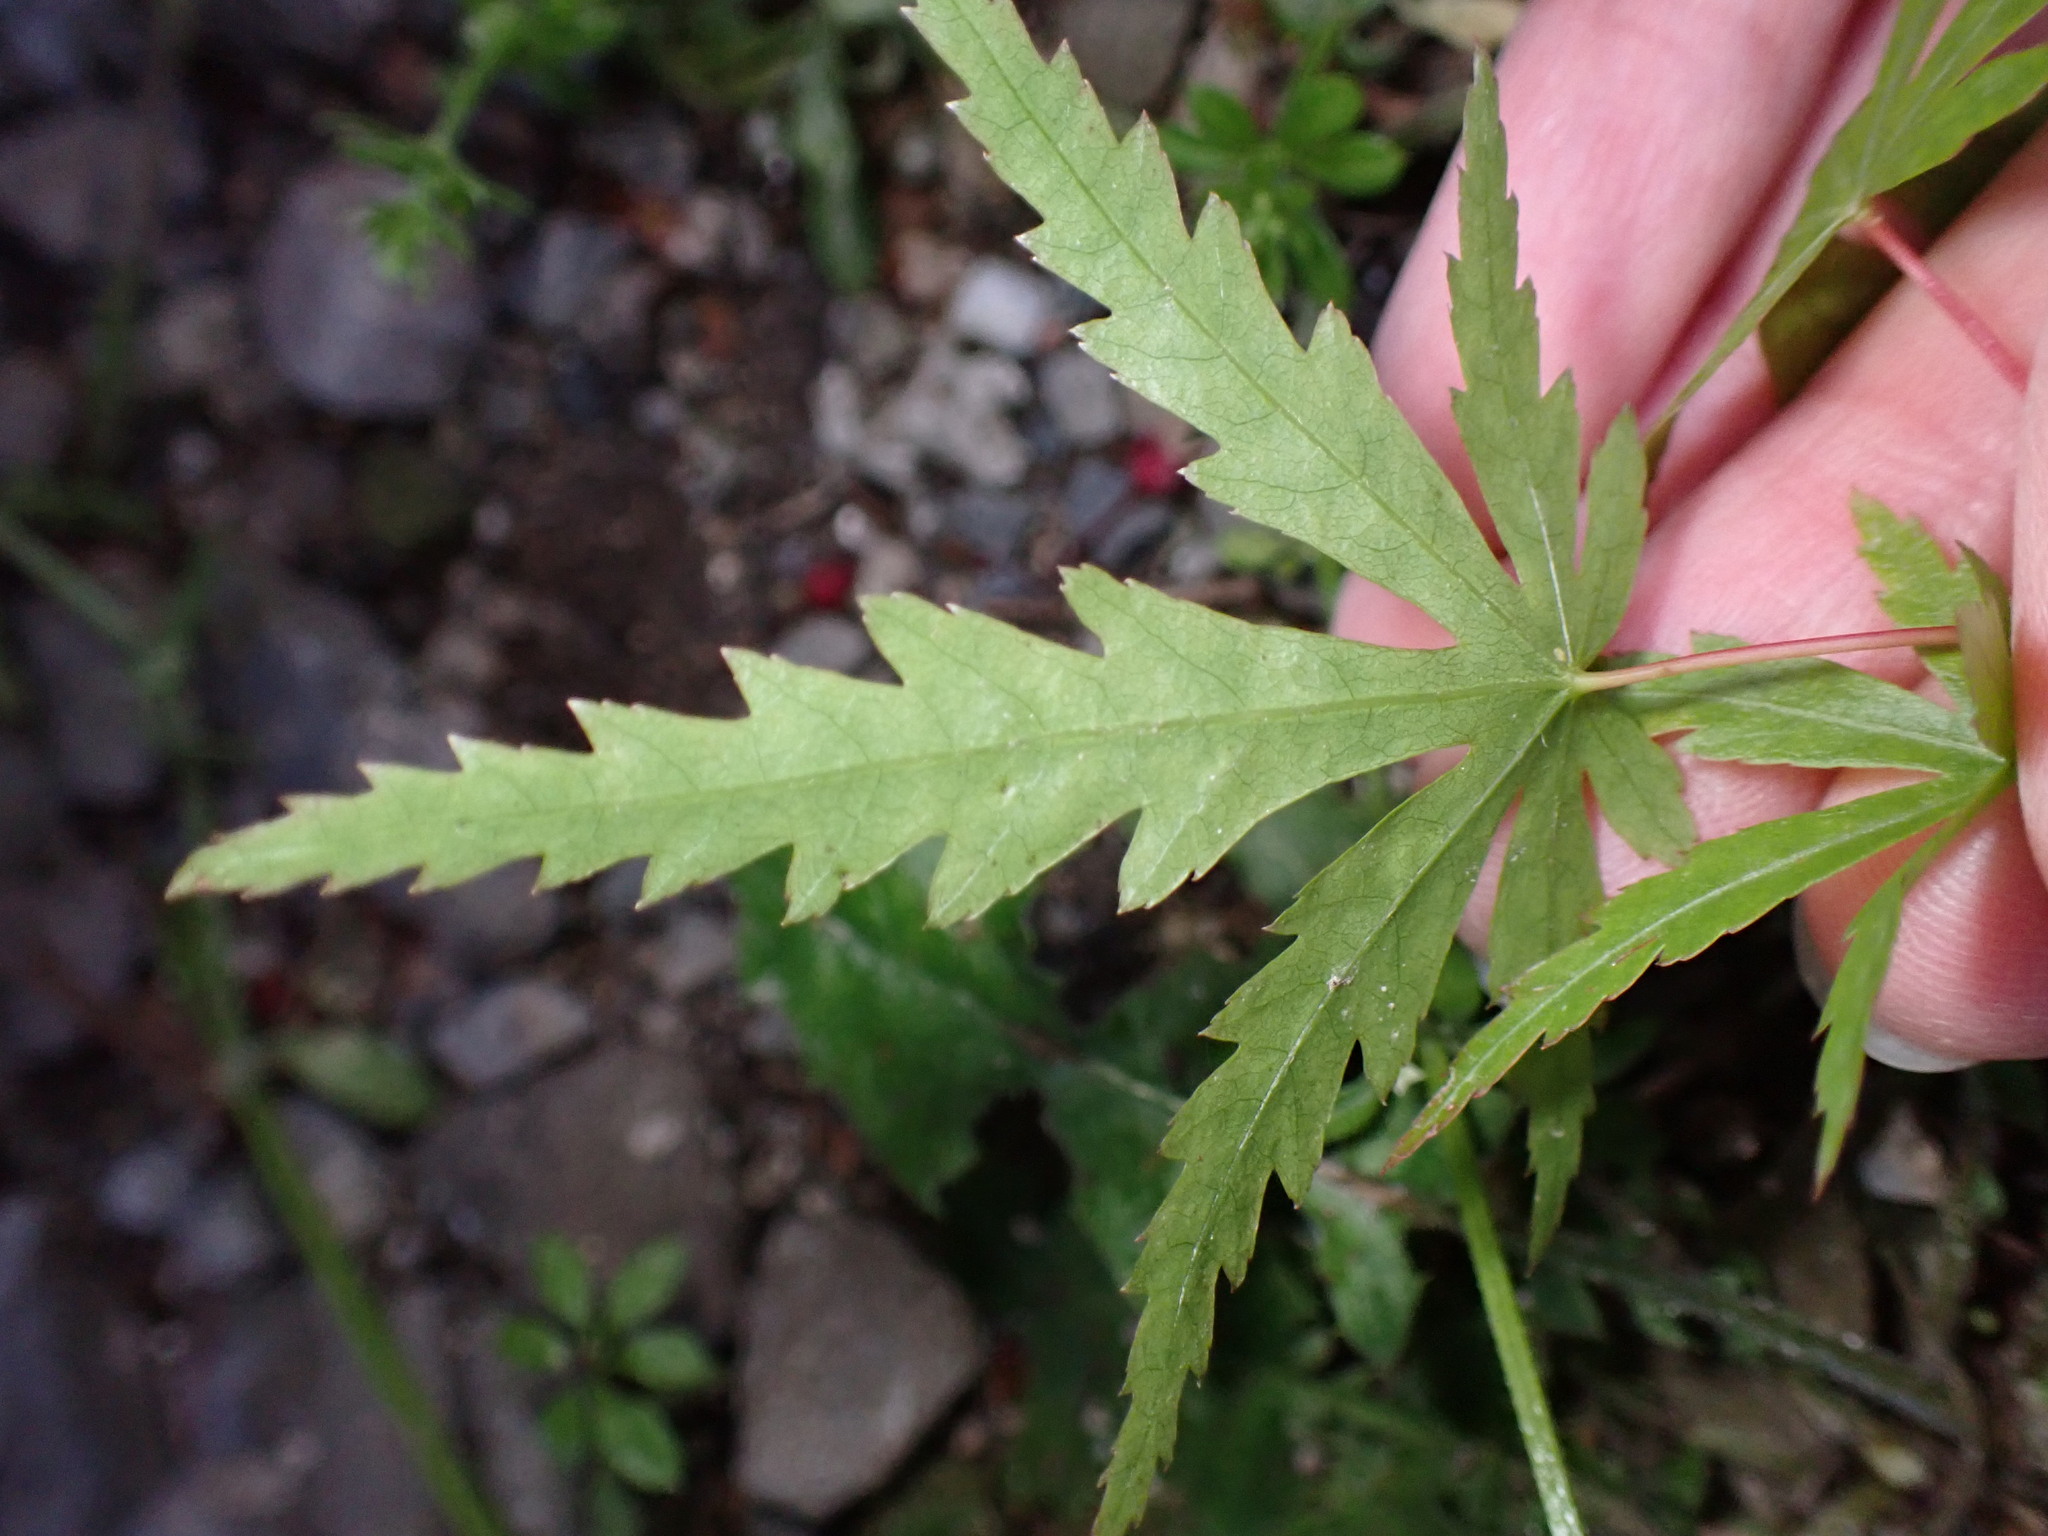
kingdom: Plantae
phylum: Tracheophyta
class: Magnoliopsida
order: Sapindales
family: Sapindaceae
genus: Acer
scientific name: Acer palmatum
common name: Japanese maple
